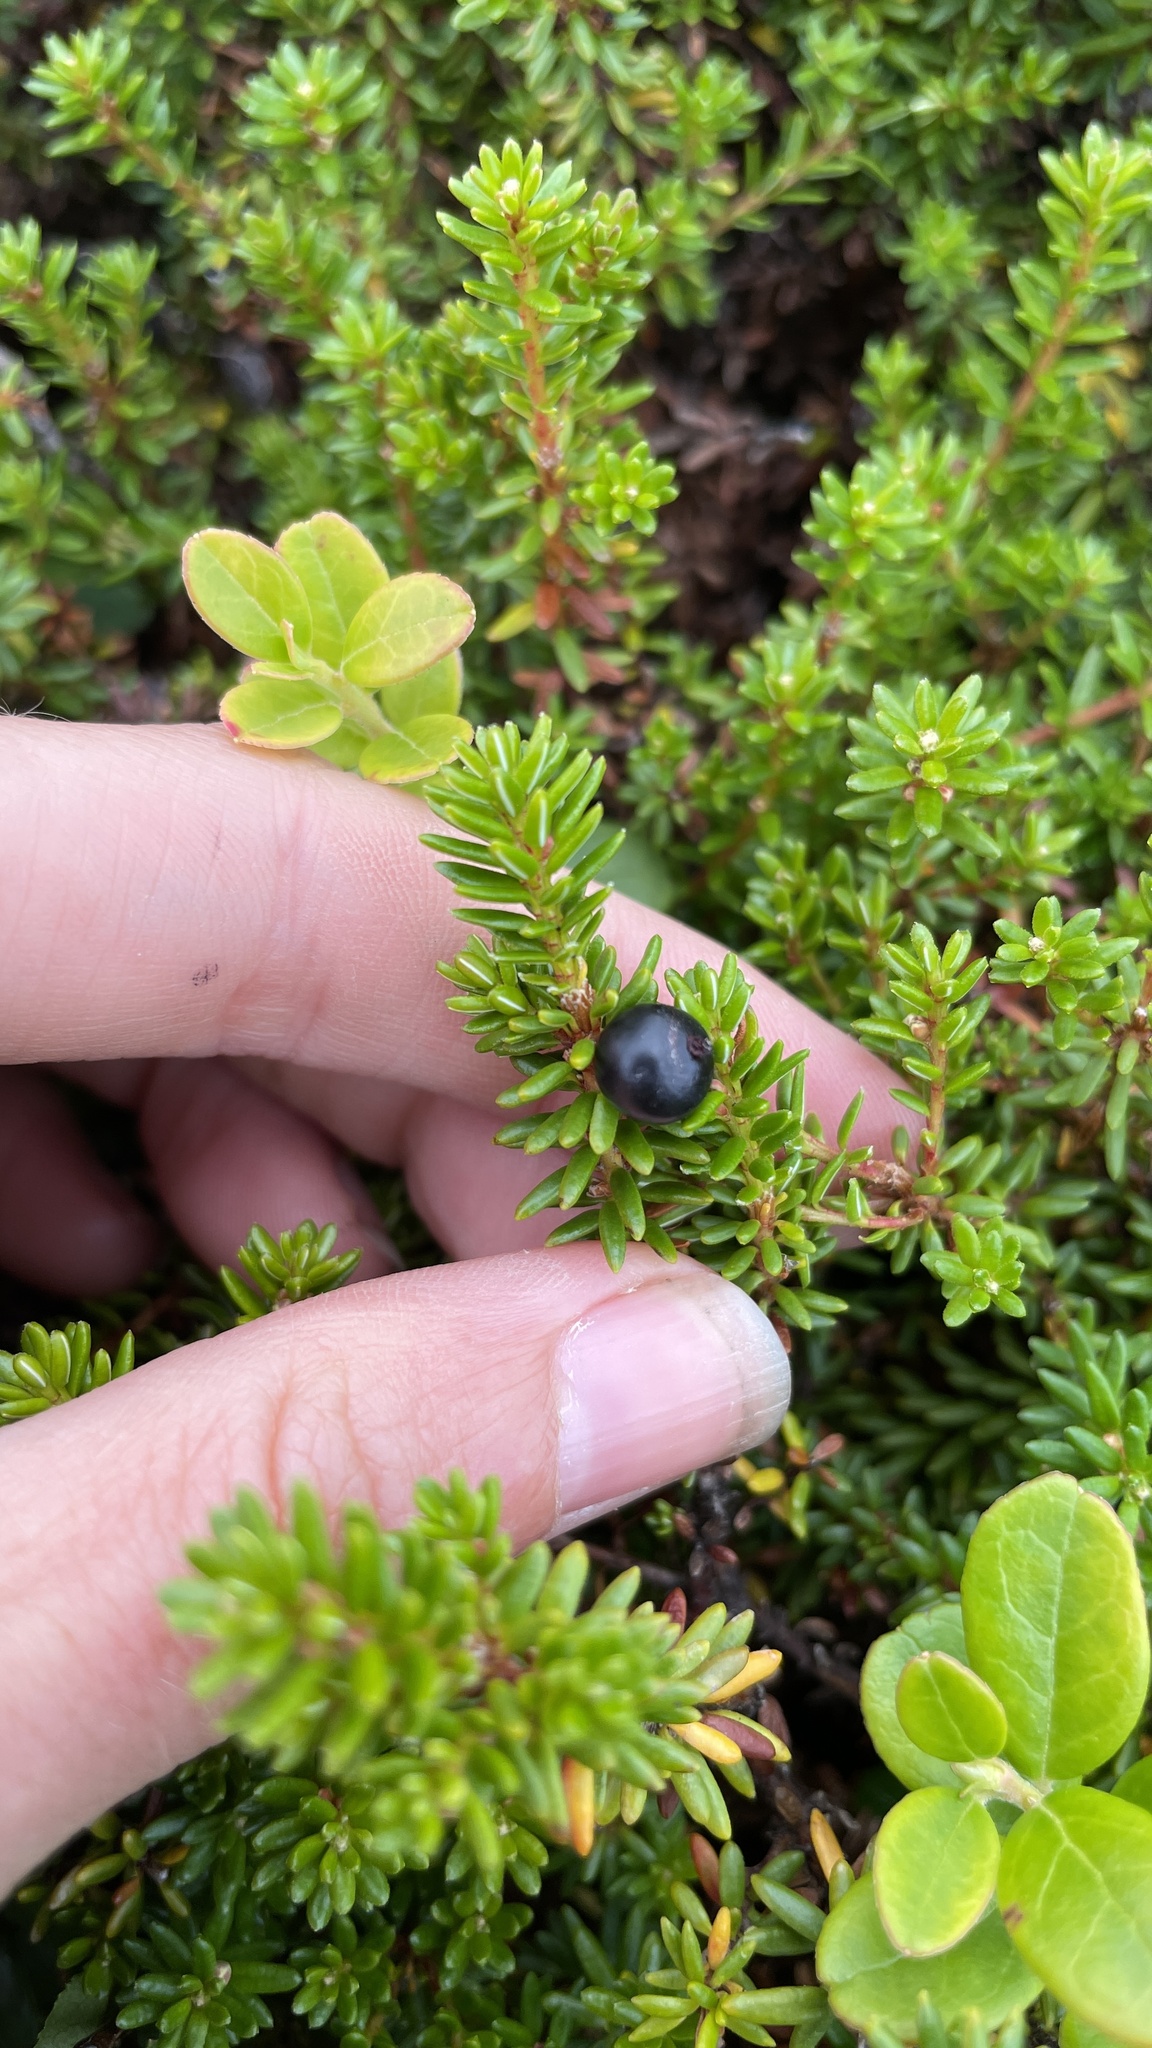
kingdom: Plantae
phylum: Tracheophyta
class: Magnoliopsida
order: Ericales
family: Ericaceae
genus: Empetrum
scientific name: Empetrum nigrum
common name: Black crowberry
